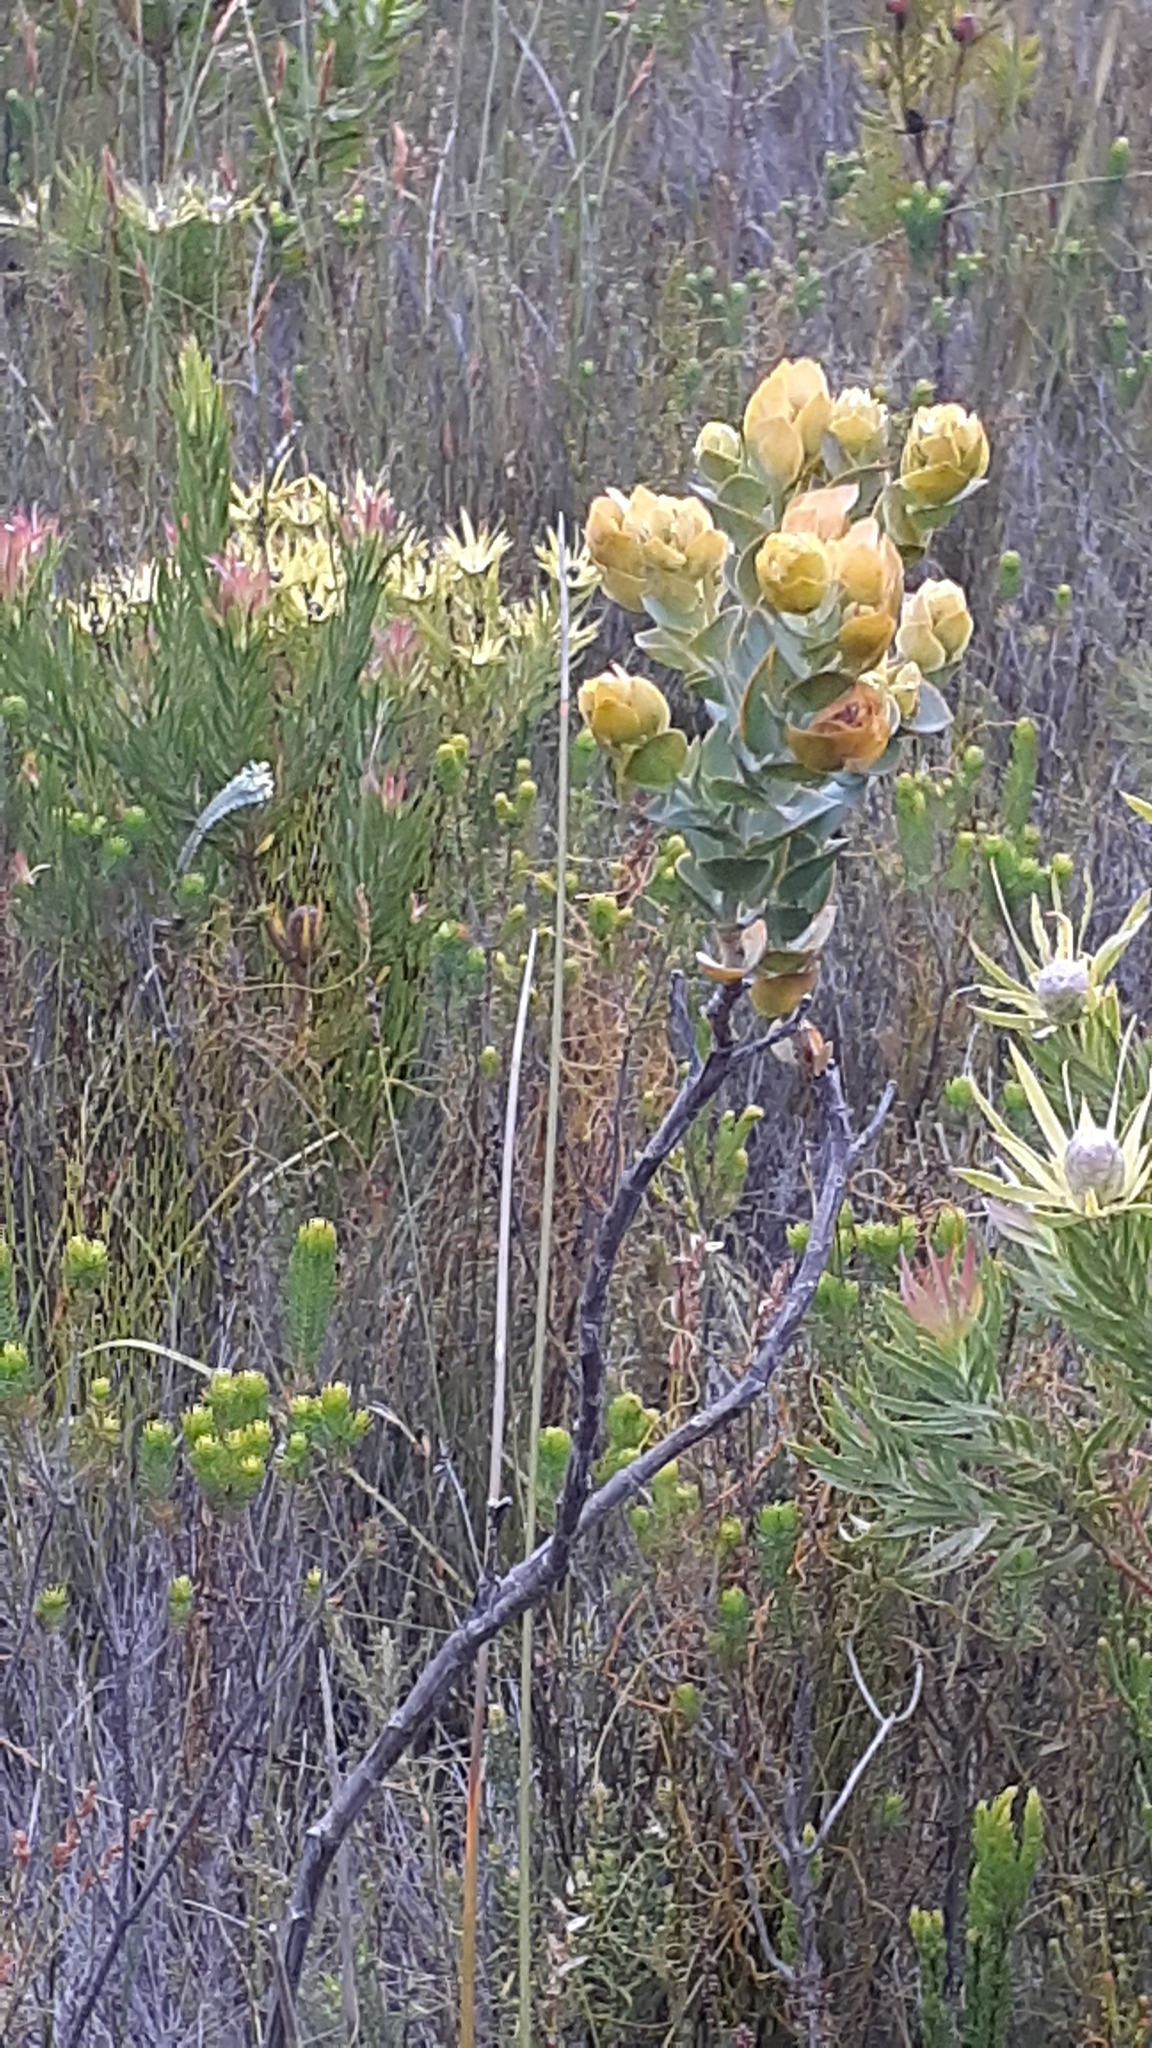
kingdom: Plantae
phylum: Tracheophyta
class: Magnoliopsida
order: Santalales
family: Thesiaceae
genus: Thesium
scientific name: Thesium euphorbioides
